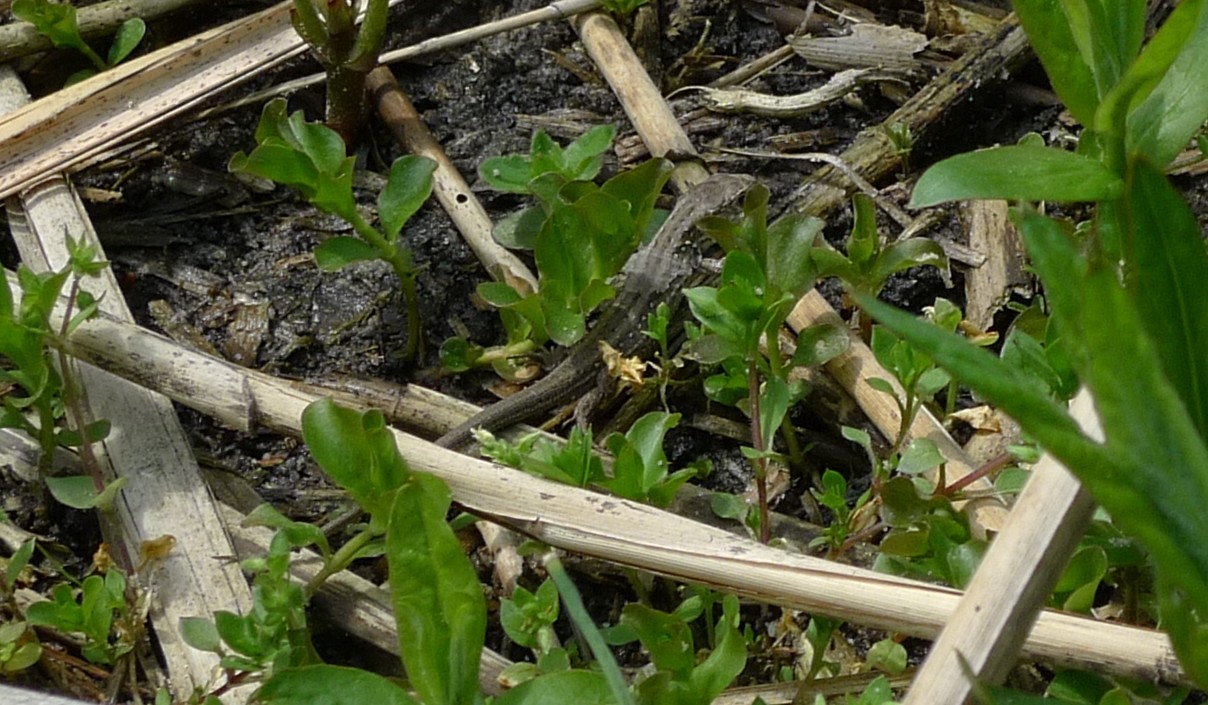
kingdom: Animalia
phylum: Chordata
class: Squamata
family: Lacertidae
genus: Lacerta
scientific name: Lacerta agilis
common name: Sand lizard
